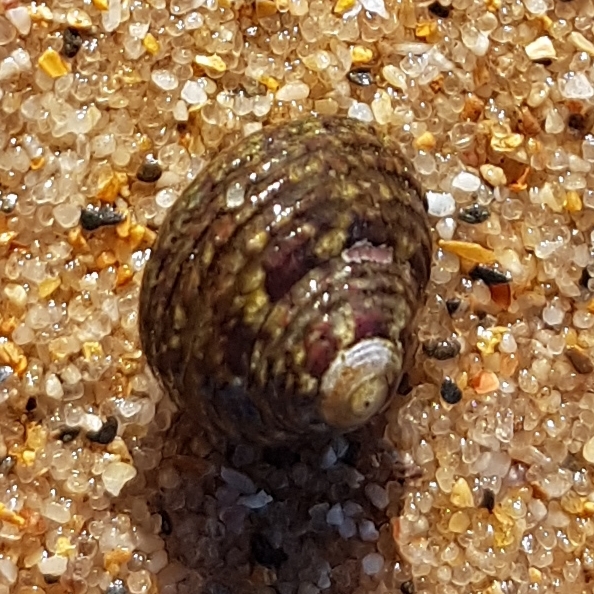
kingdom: Animalia
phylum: Mollusca
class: Gastropoda
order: Trochida
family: Trochidae
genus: Steromphala
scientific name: Steromphala pennanti
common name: Pennant's top shell
